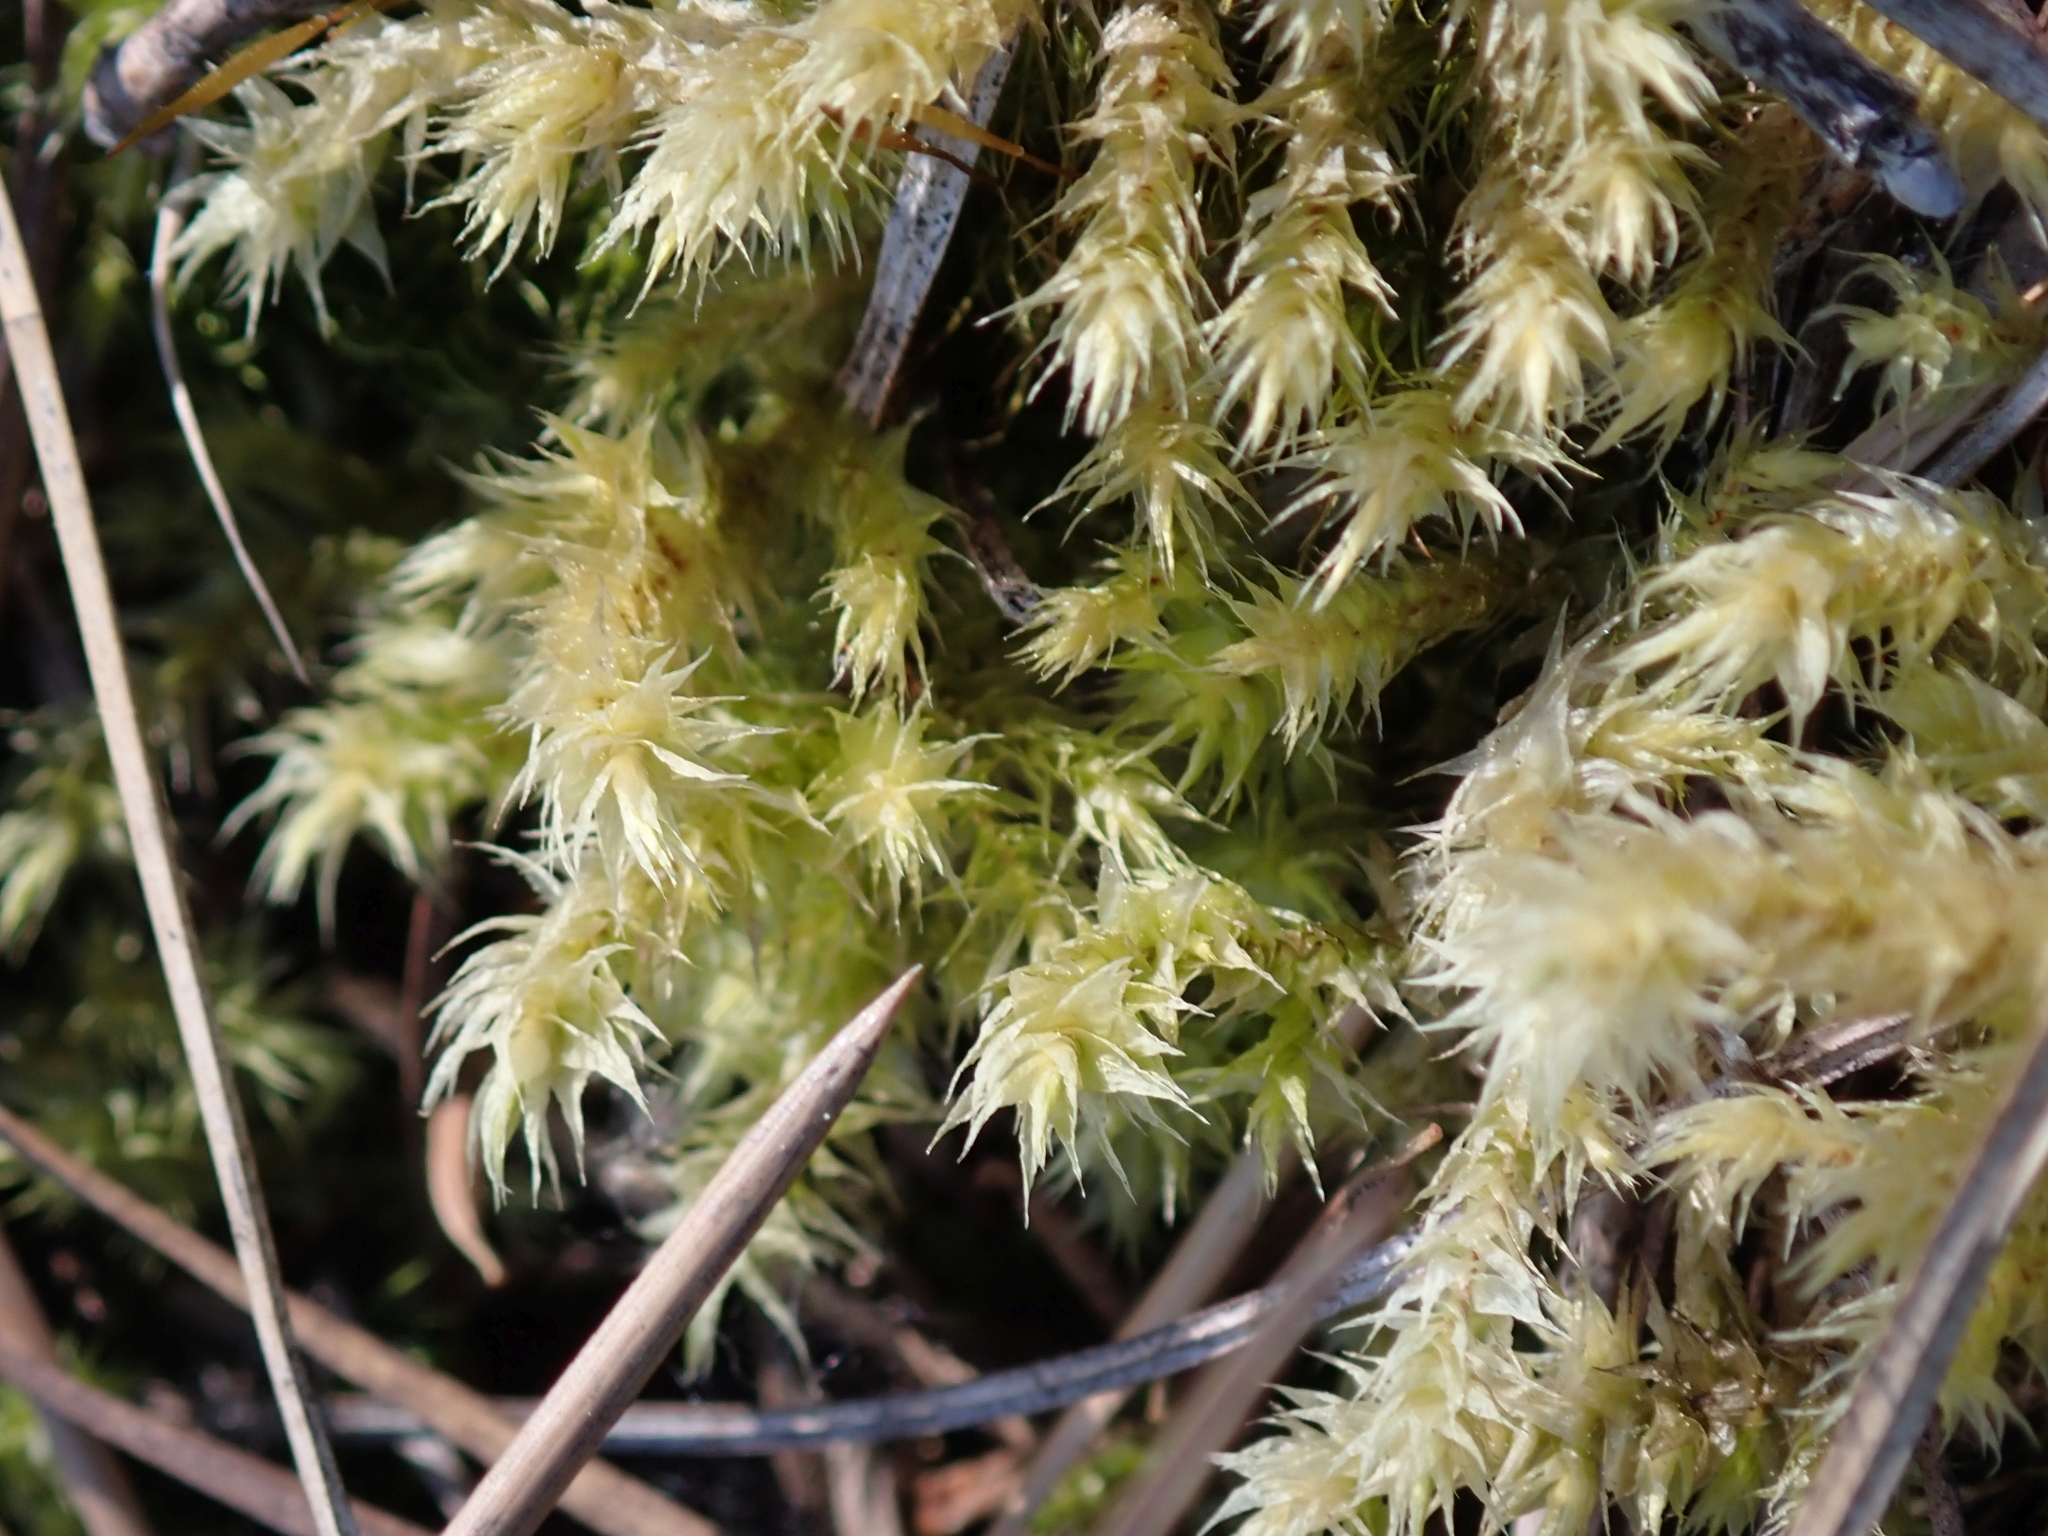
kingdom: Plantae
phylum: Bryophyta
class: Bryopsida
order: Hypnales
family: Hylocomiaceae
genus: Hylocomiadelphus
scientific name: Hylocomiadelphus triquetrus
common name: Rough goose neck moss
